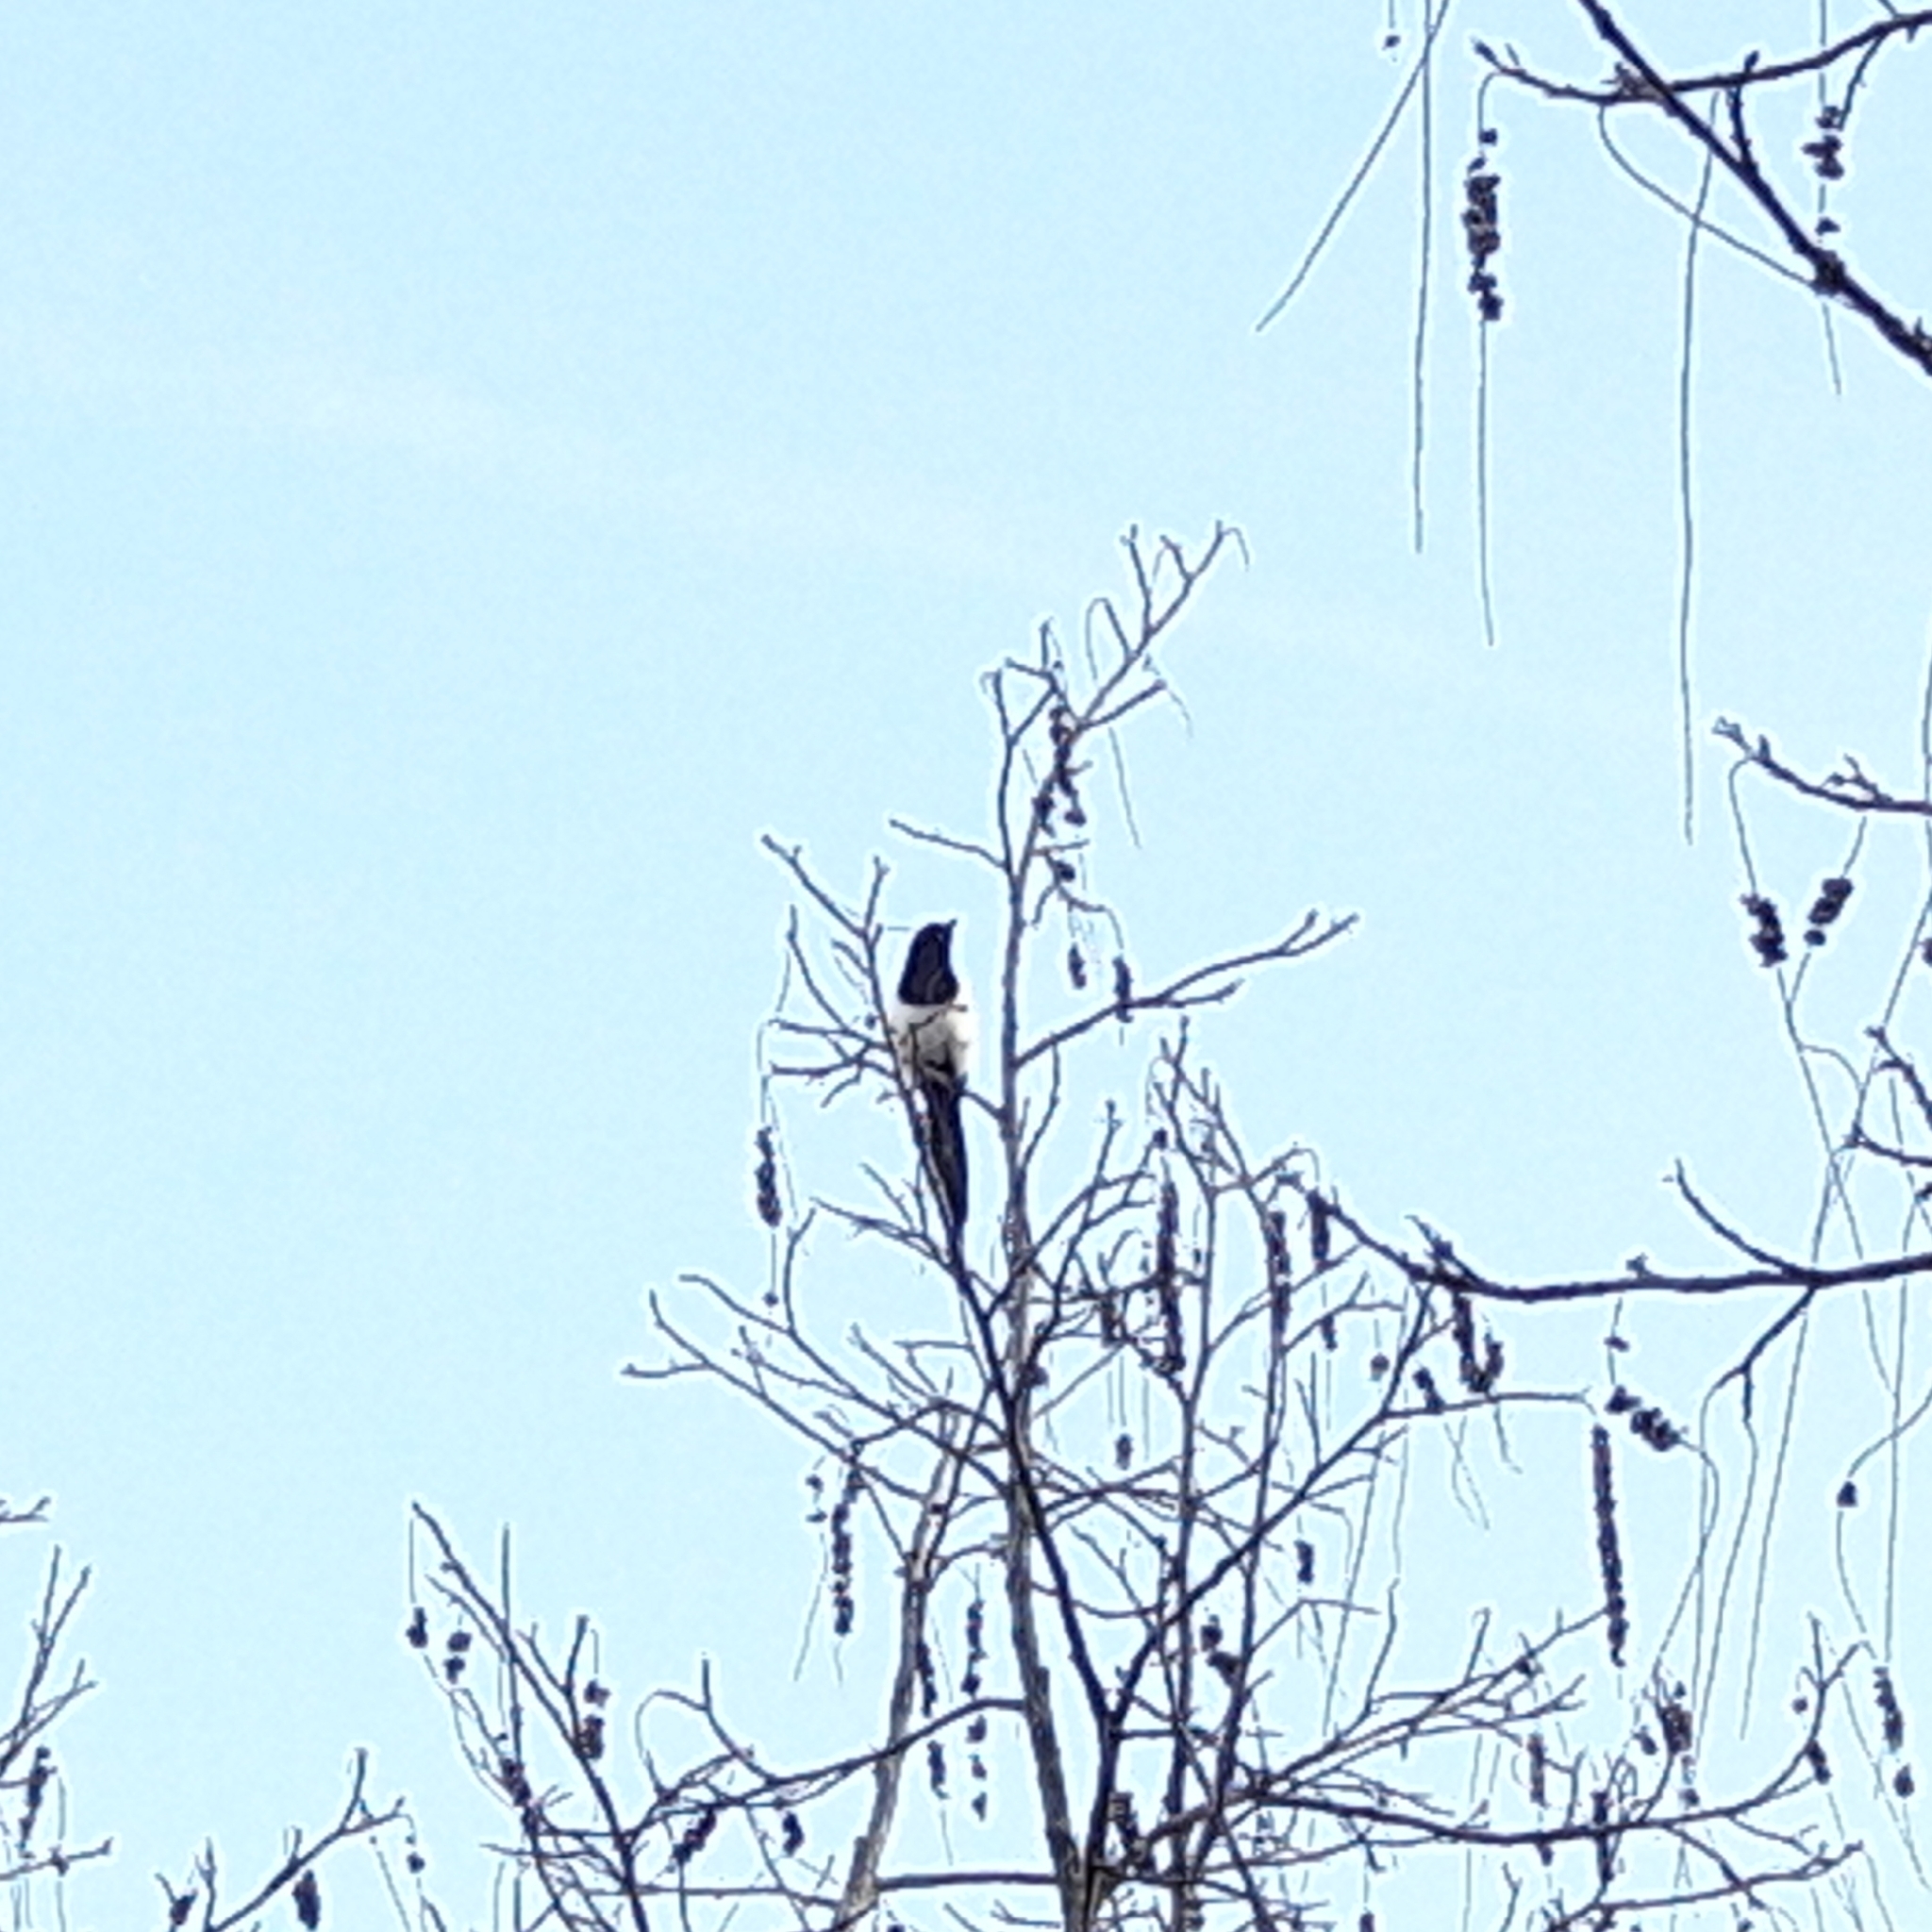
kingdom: Animalia
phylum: Chordata
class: Aves
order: Passeriformes
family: Corvidae
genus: Pica
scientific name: Pica pica
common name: Eurasian magpie
